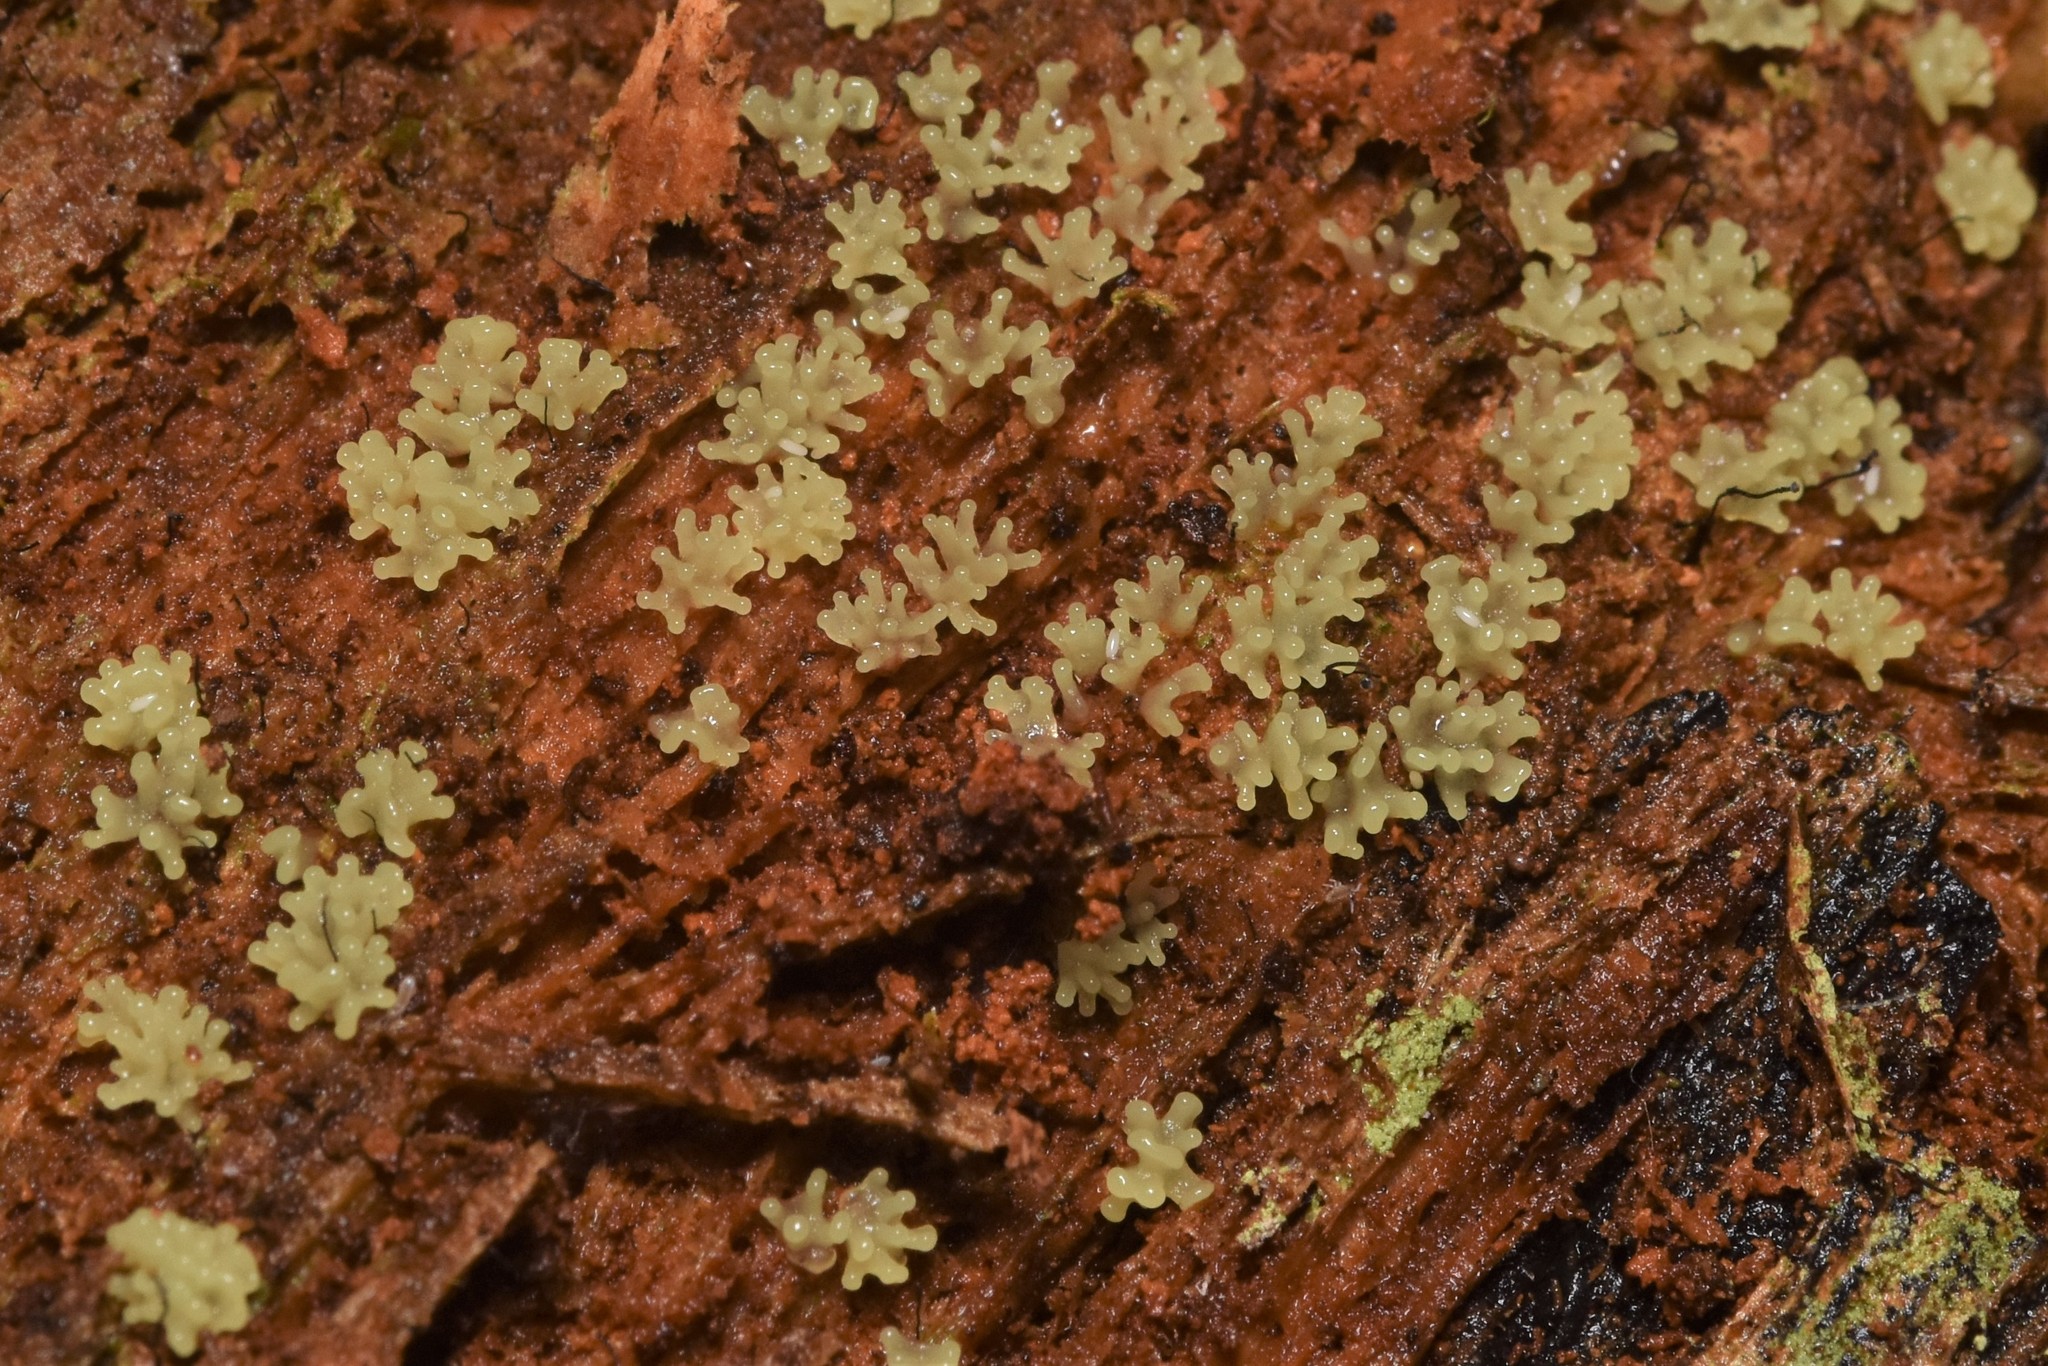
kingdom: Protozoa
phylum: Mycetozoa
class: Protosteliomycetes
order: Ceratiomyxales
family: Ceratiomyxaceae
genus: Ceratiomyxa
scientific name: Ceratiomyxa fruticulosa
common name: Honeycomb coral slime mold
